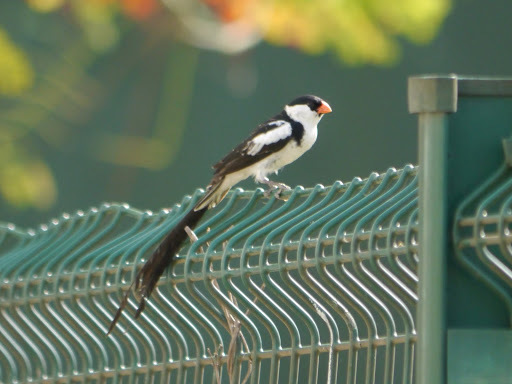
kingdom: Animalia
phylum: Chordata
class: Aves
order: Passeriformes
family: Viduidae
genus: Vidua
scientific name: Vidua macroura
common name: Pin-tailed whydah
